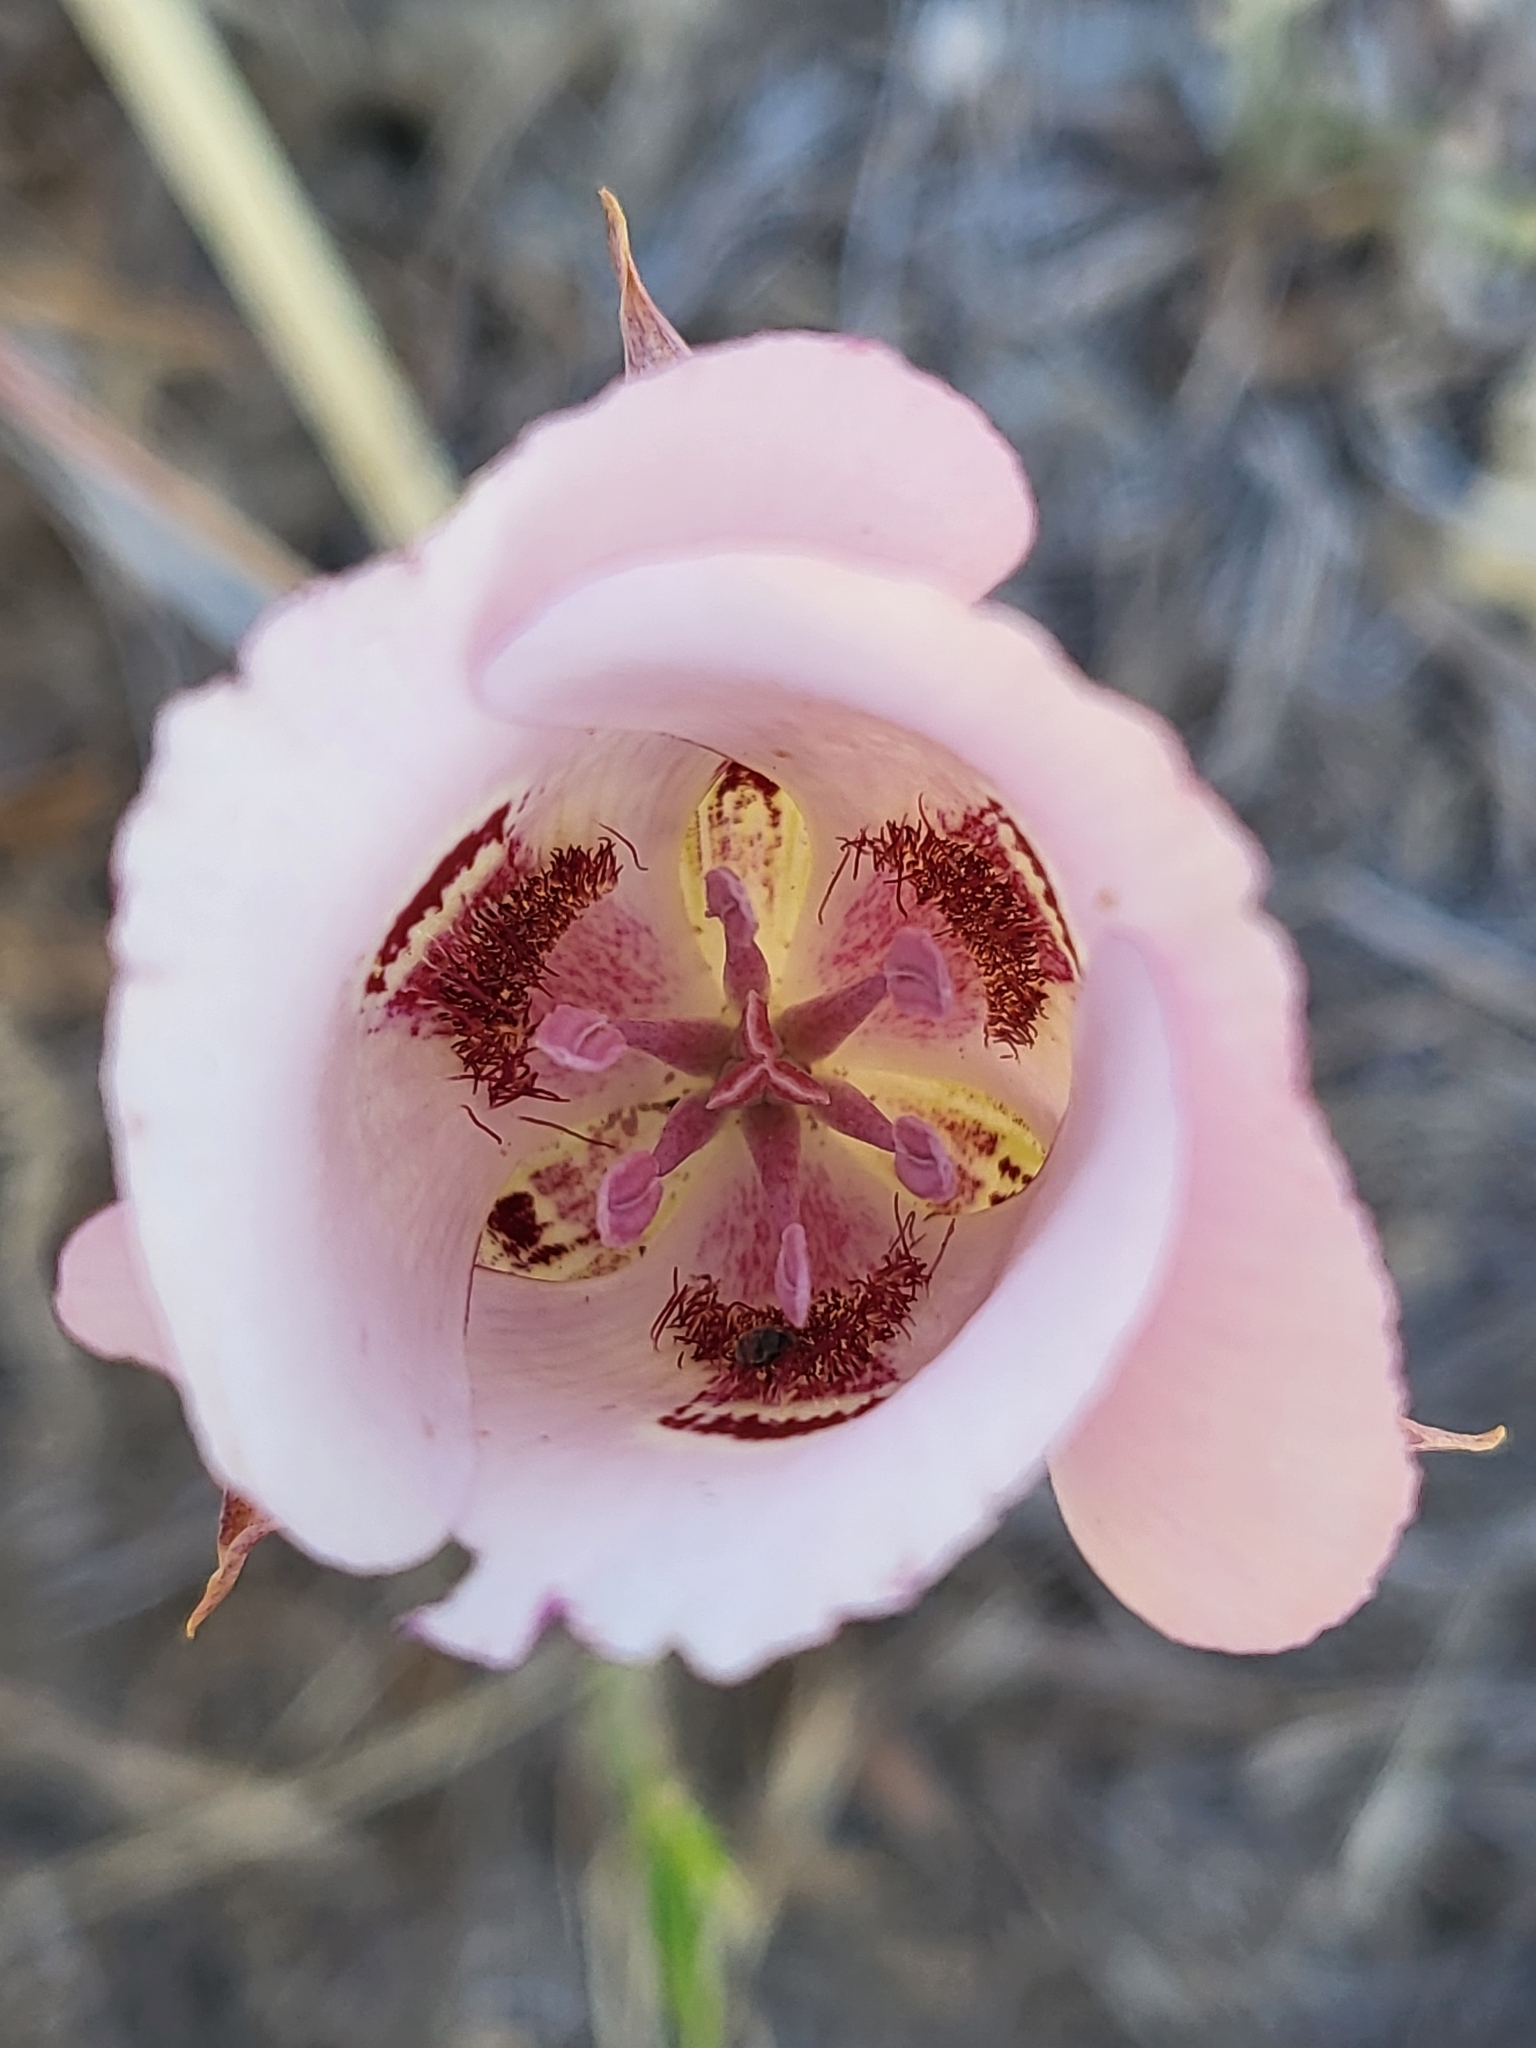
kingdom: Plantae
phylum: Tracheophyta
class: Liliopsida
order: Liliales
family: Liliaceae
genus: Calochortus
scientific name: Calochortus argillosus
